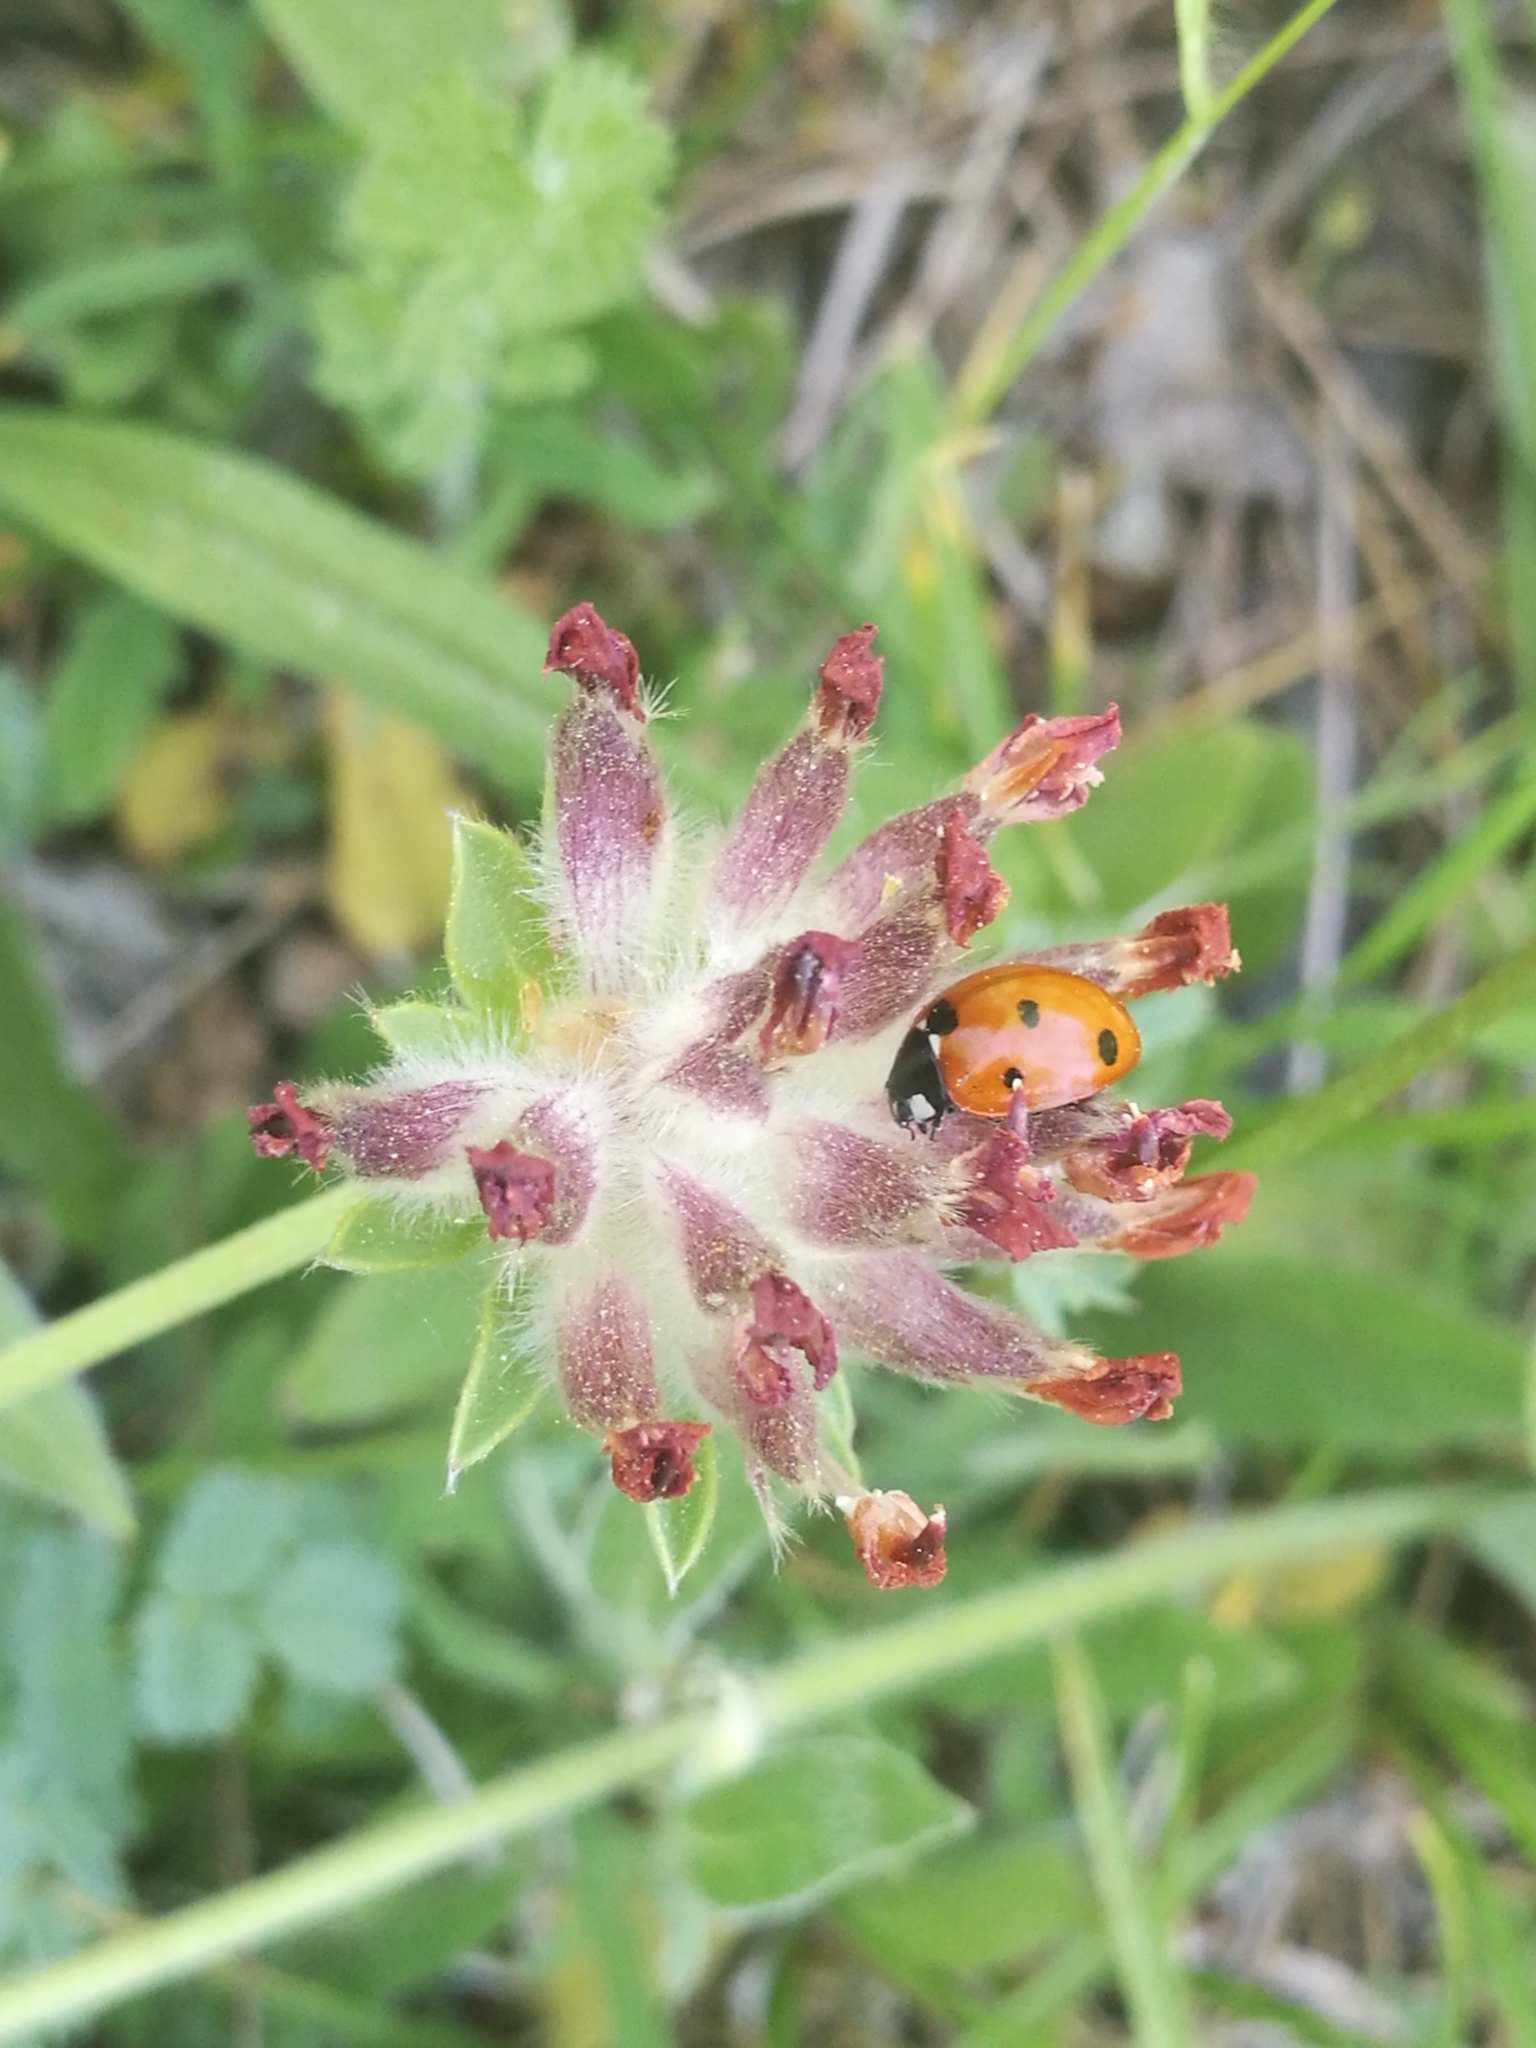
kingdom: Animalia
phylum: Arthropoda
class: Insecta
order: Coleoptera
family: Coccinellidae
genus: Coccinella
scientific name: Coccinella septempunctata
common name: Sevenspotted lady beetle
